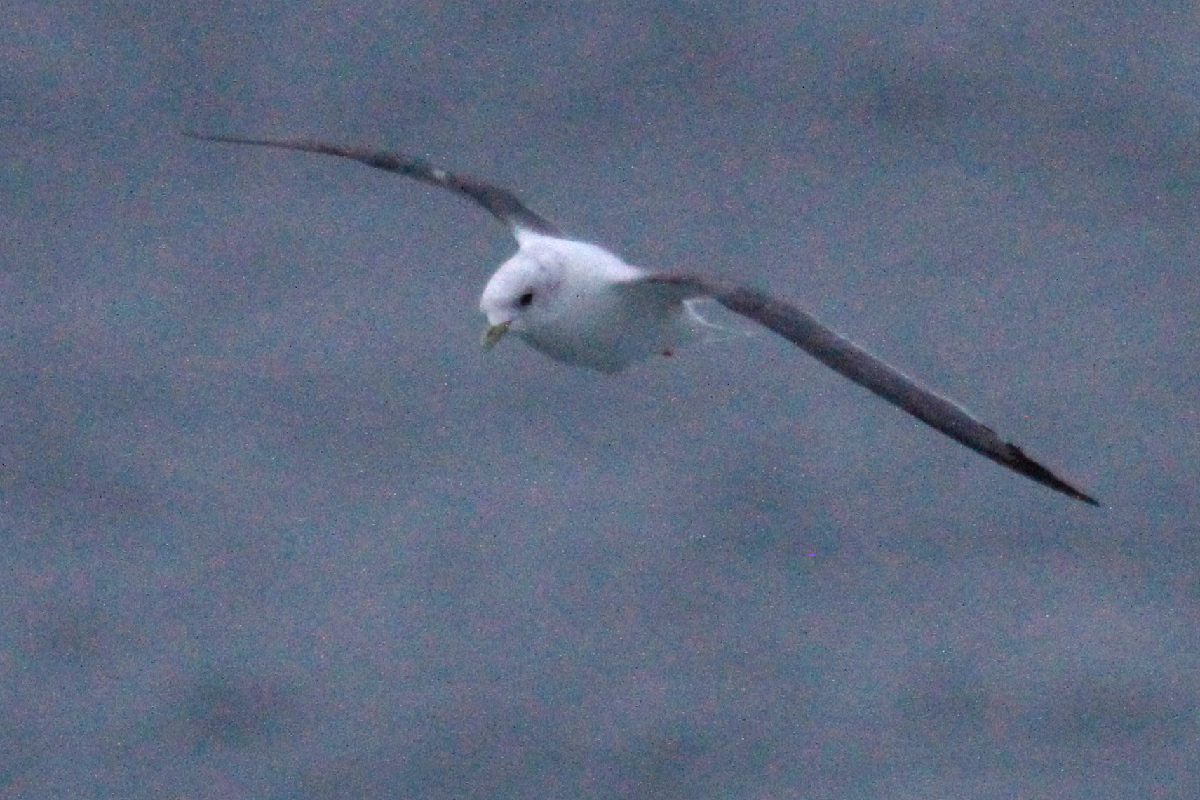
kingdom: Animalia
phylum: Chordata
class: Aves
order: Charadriiformes
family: Laridae
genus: Rissa
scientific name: Rissa brevirostris
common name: Red-legged kittiwake
